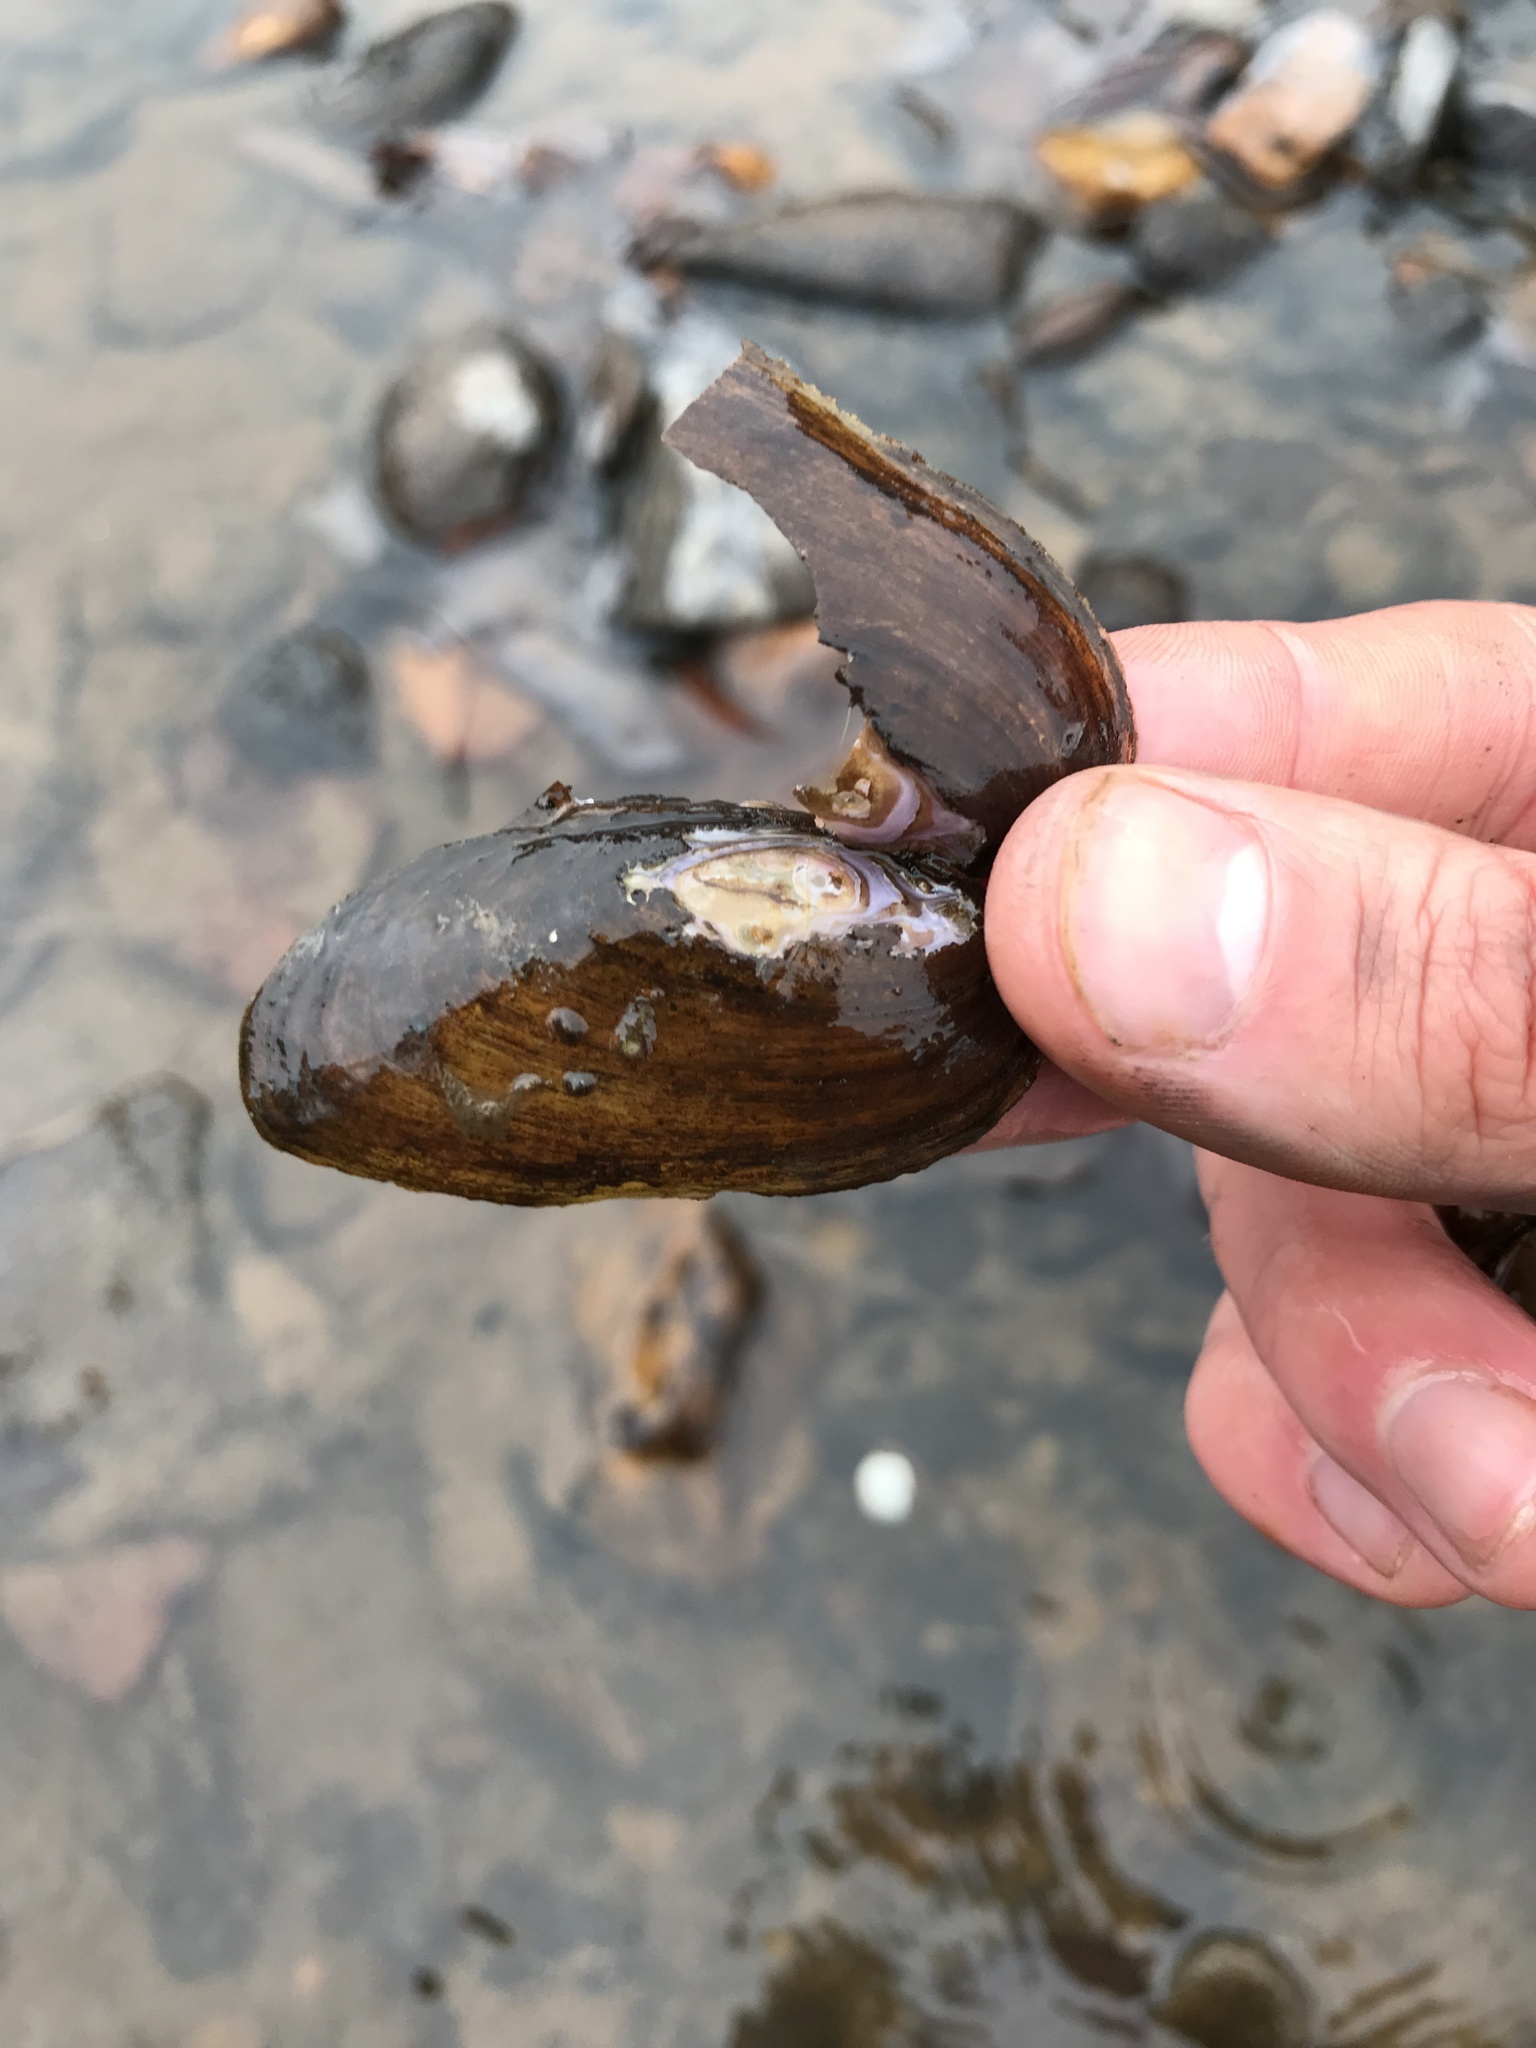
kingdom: Animalia
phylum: Mollusca
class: Bivalvia
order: Unionida
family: Unionidae
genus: Eurynia
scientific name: Eurynia dilatata
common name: Spike
